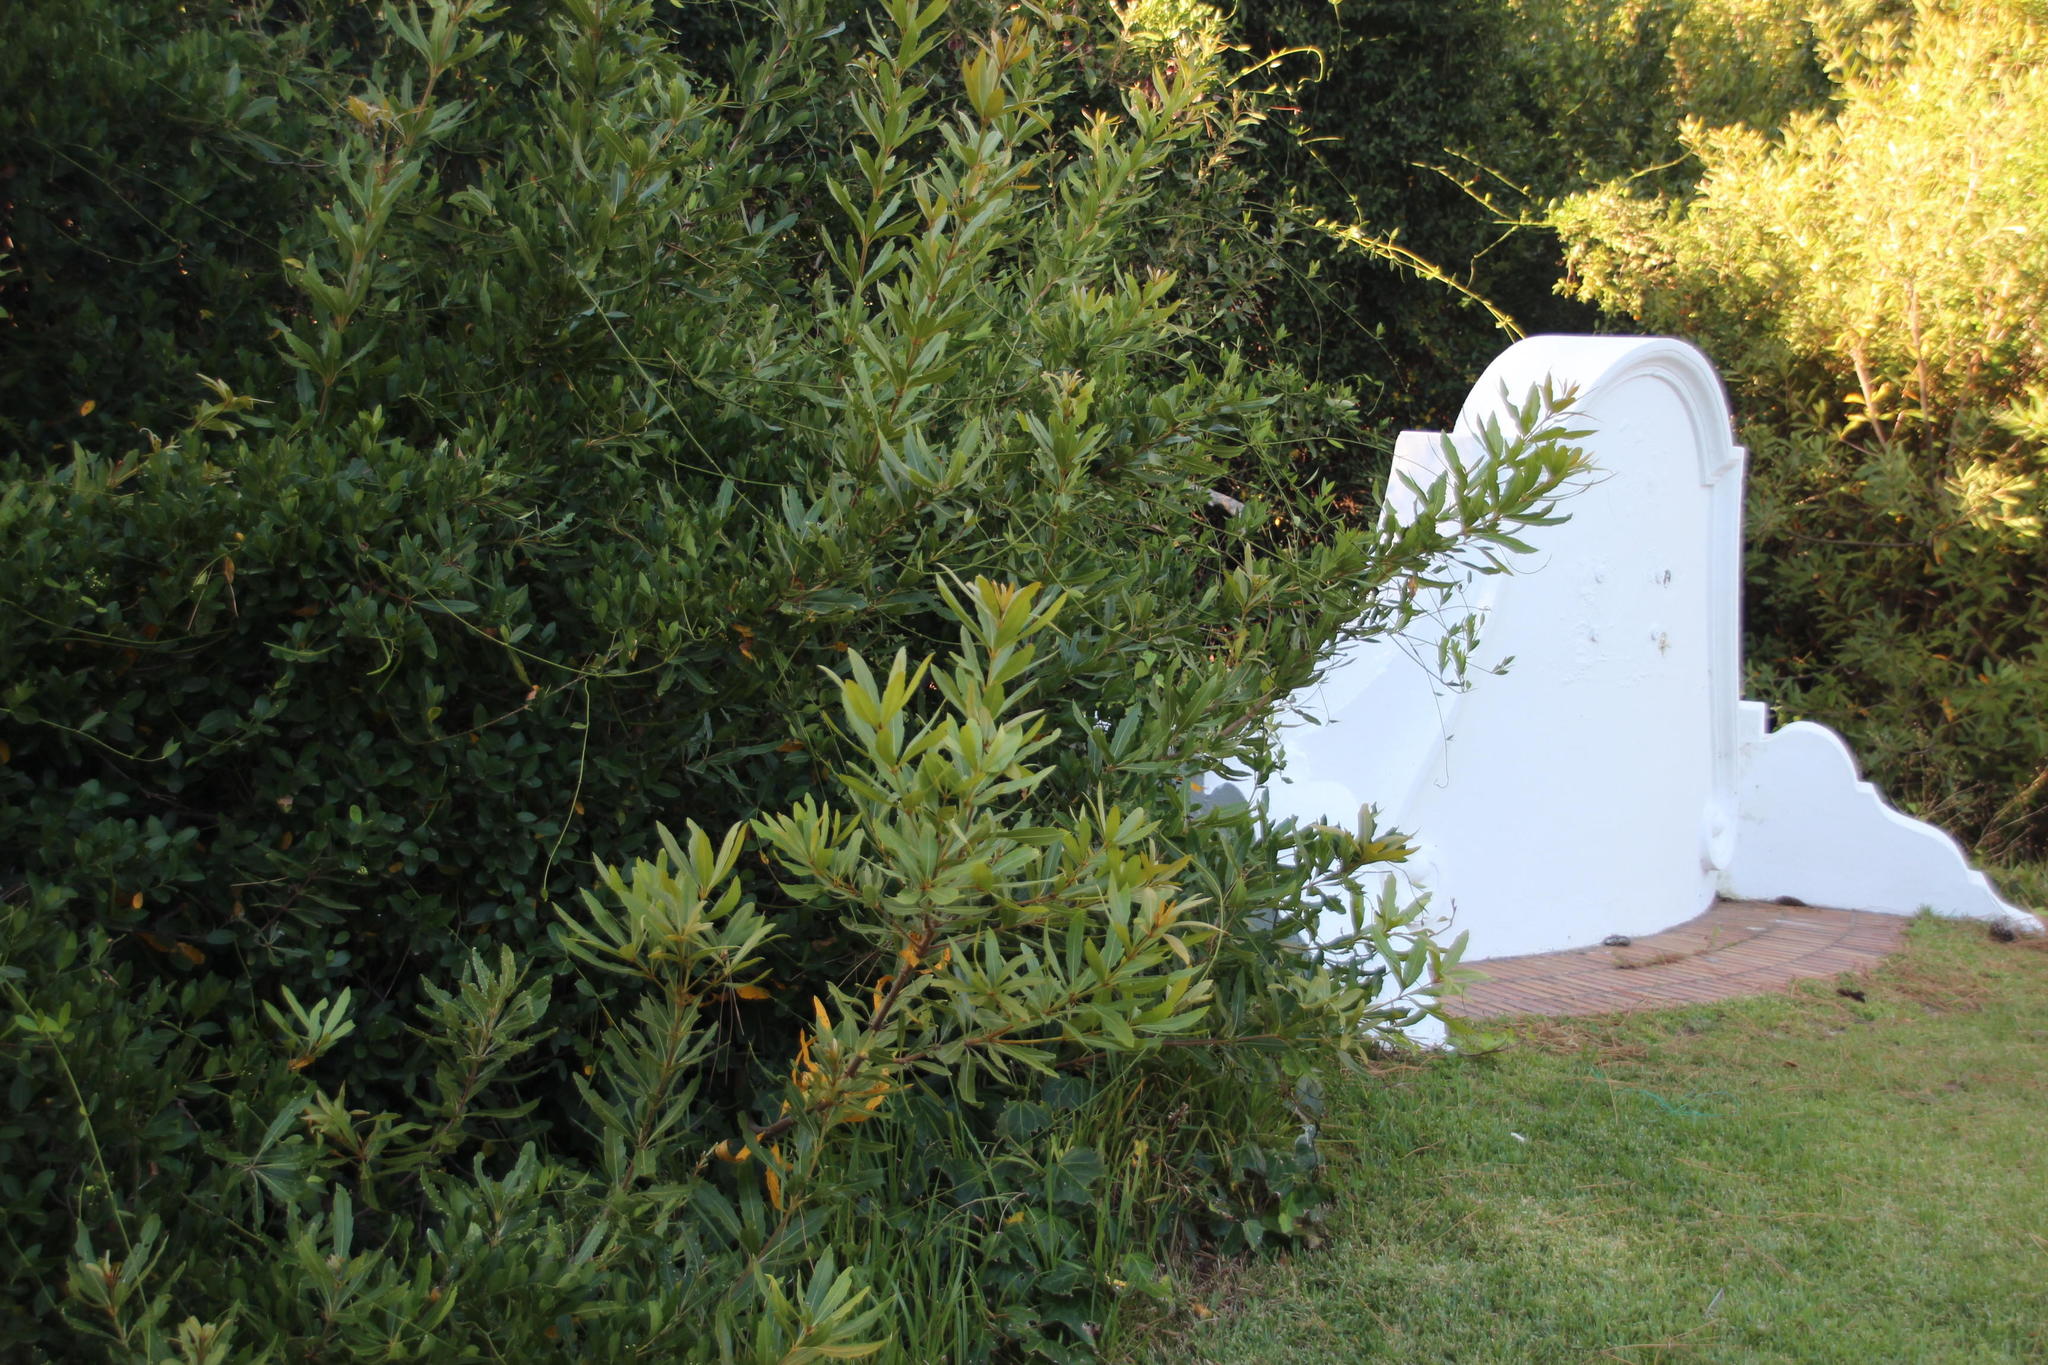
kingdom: Plantae
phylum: Tracheophyta
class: Magnoliopsida
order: Proteales
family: Proteaceae
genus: Brabejum
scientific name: Brabejum stellatifolium
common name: Wild almond
